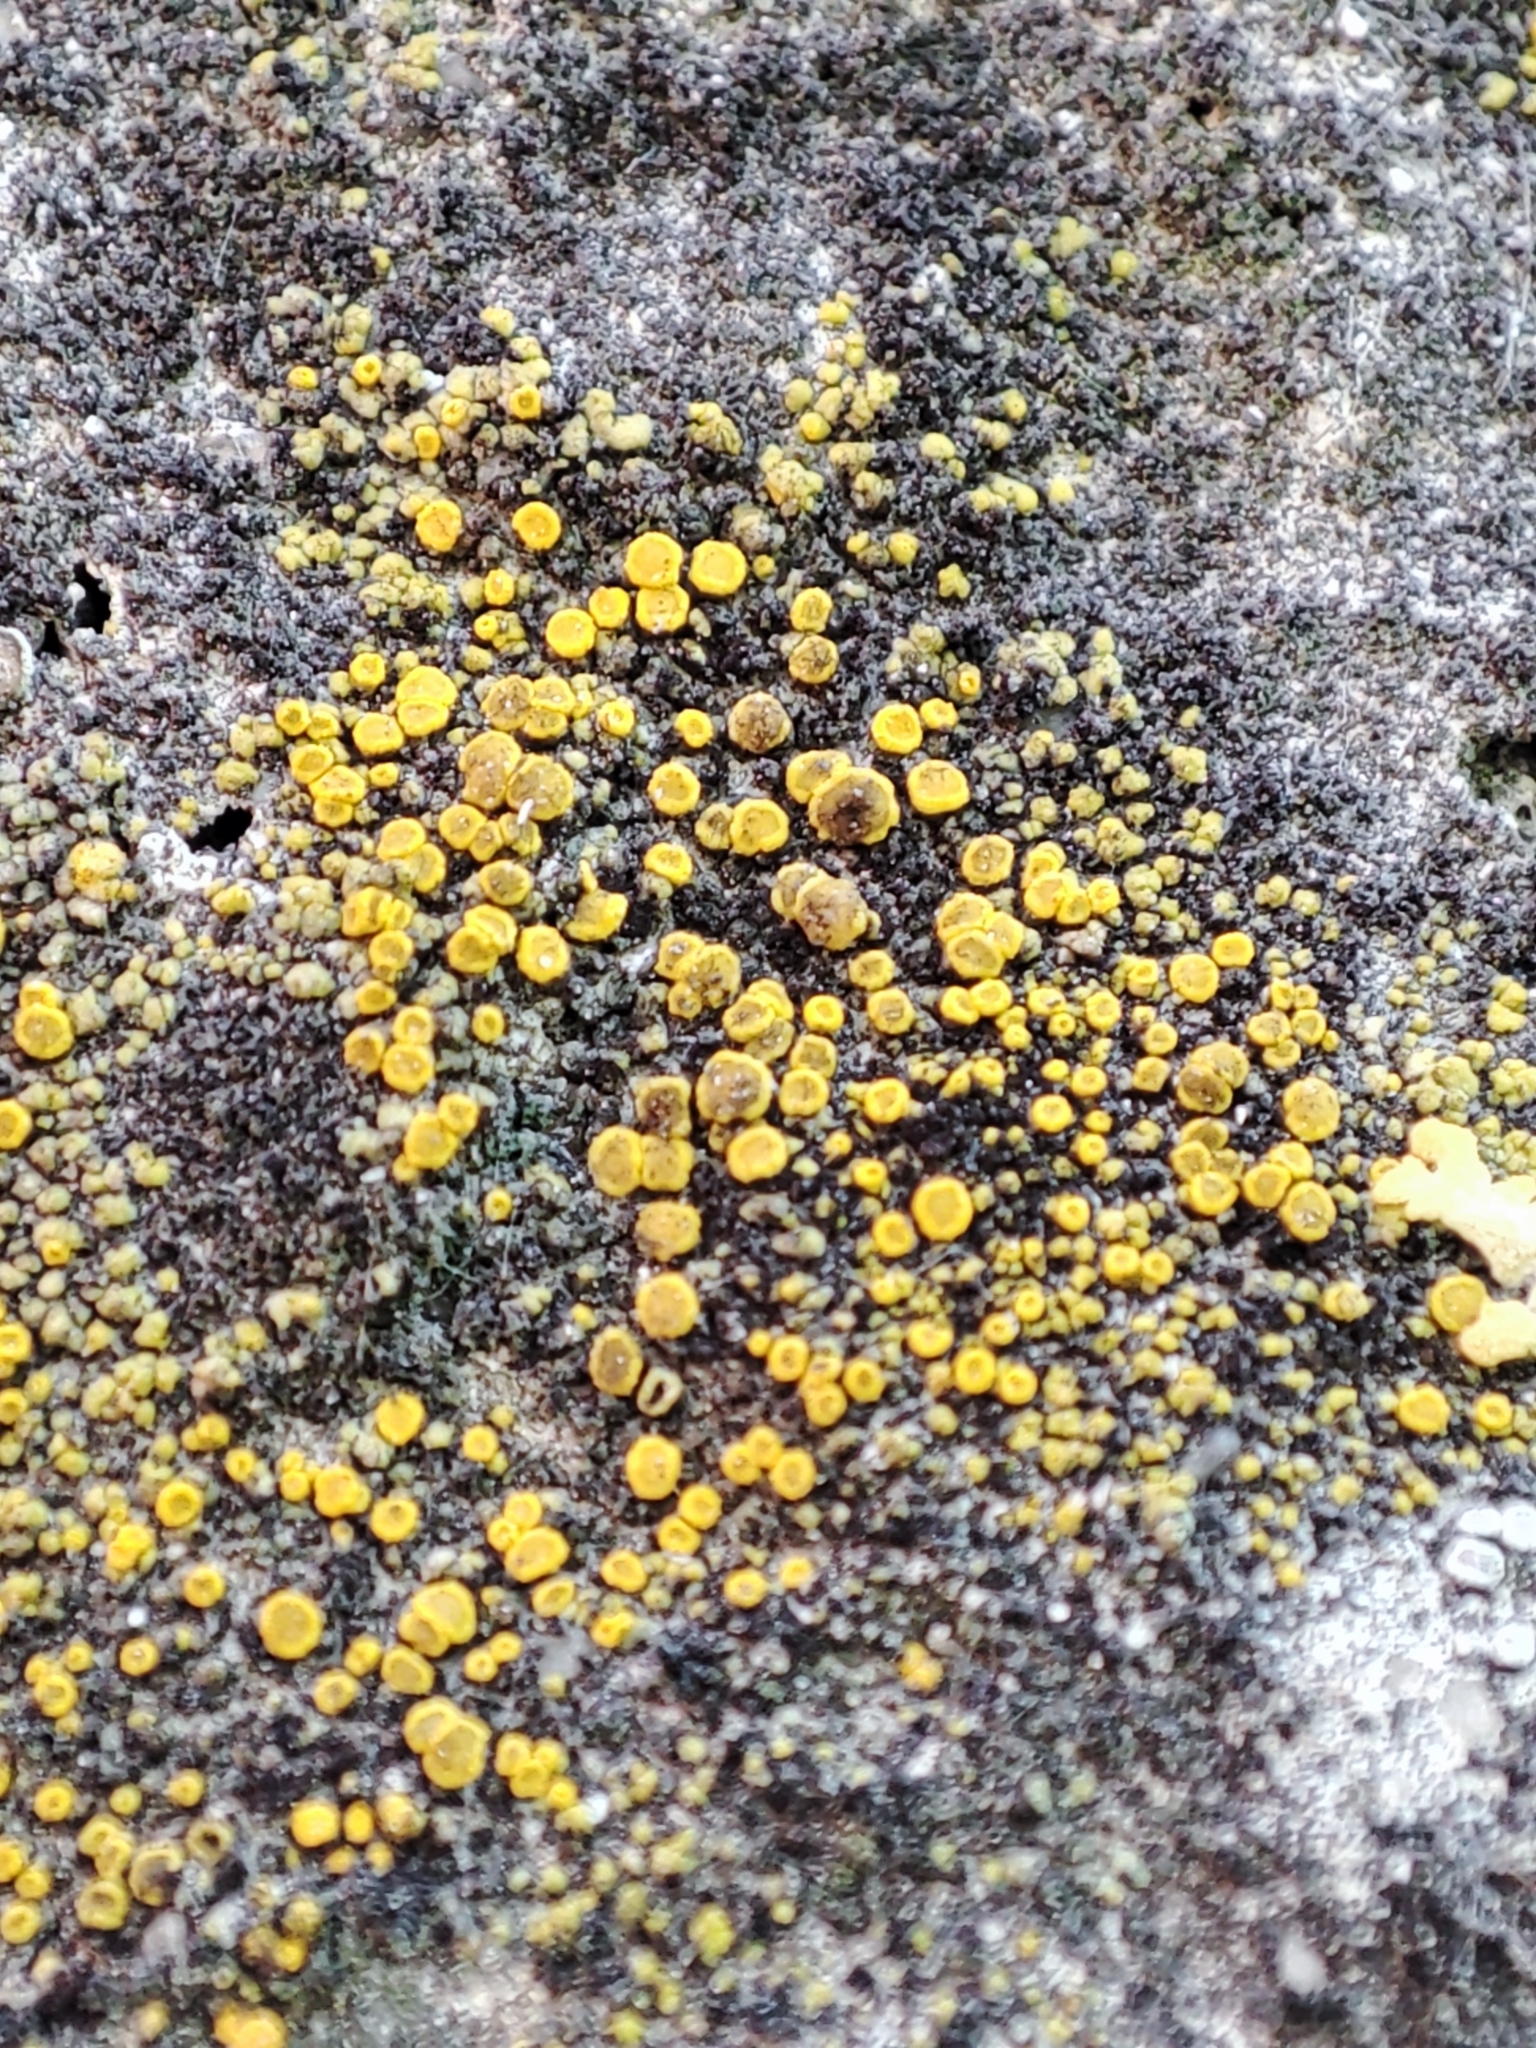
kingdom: Fungi
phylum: Ascomycota
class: Candelariomycetes
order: Candelariales
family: Candelariaceae
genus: Candelariella
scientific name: Candelariella aurella
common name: Hidden goldspeck lichen
